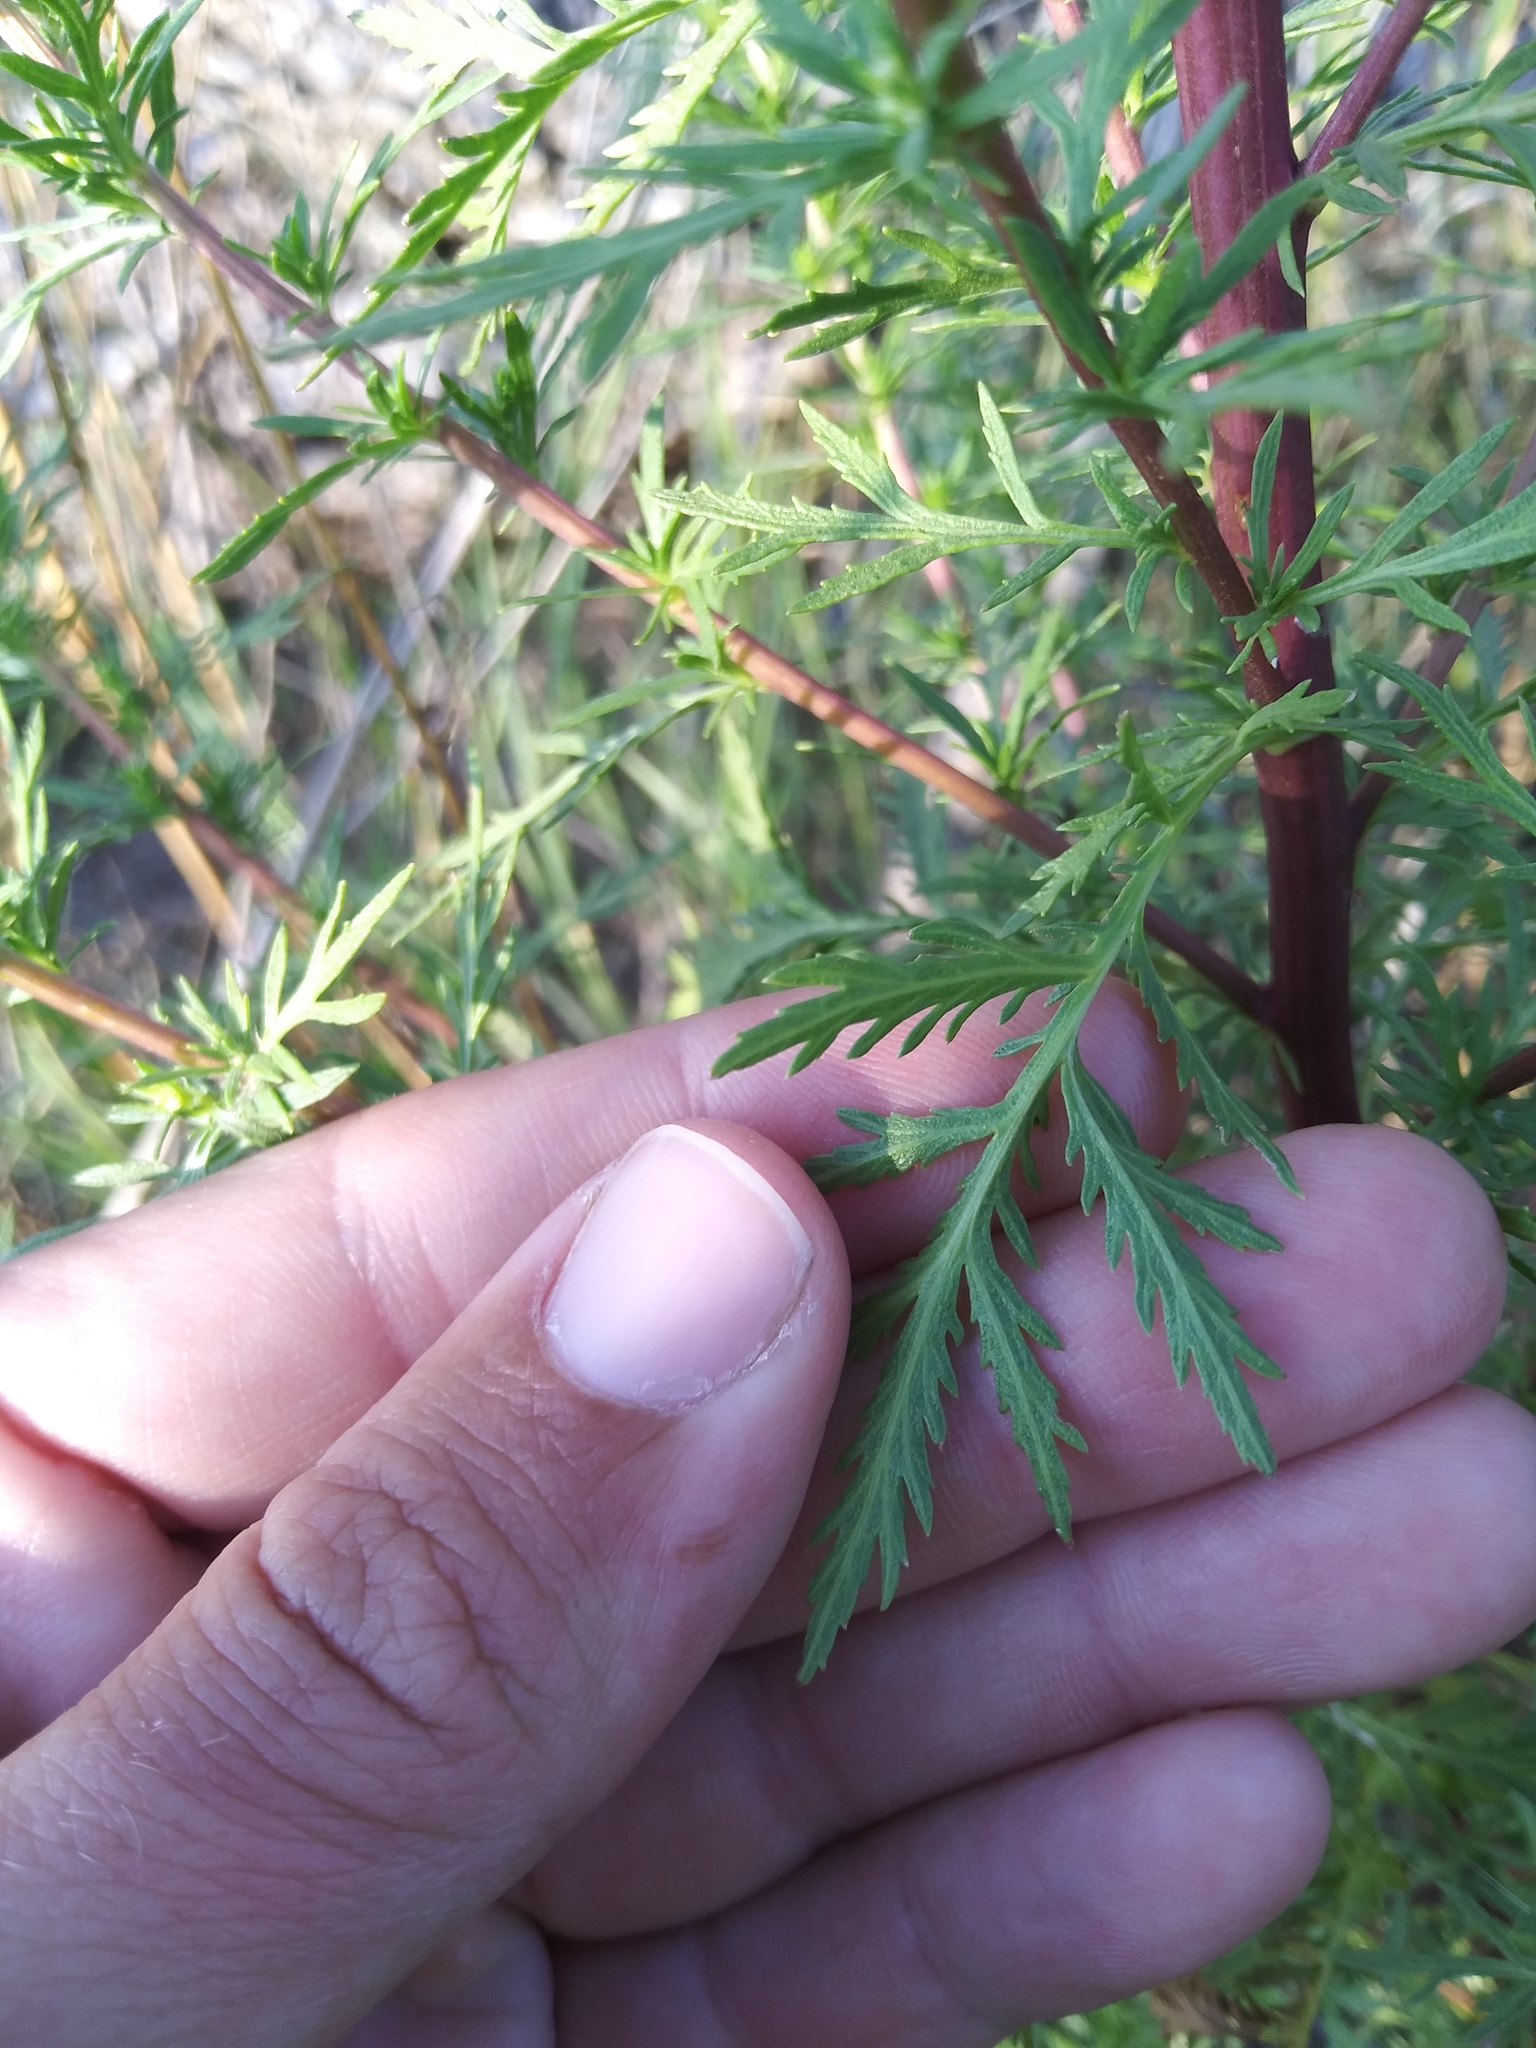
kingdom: Plantae
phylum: Tracheophyta
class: Magnoliopsida
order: Asterales
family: Asteraceae
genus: Artemisia
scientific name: Artemisia biennis
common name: Biennial wormwood
